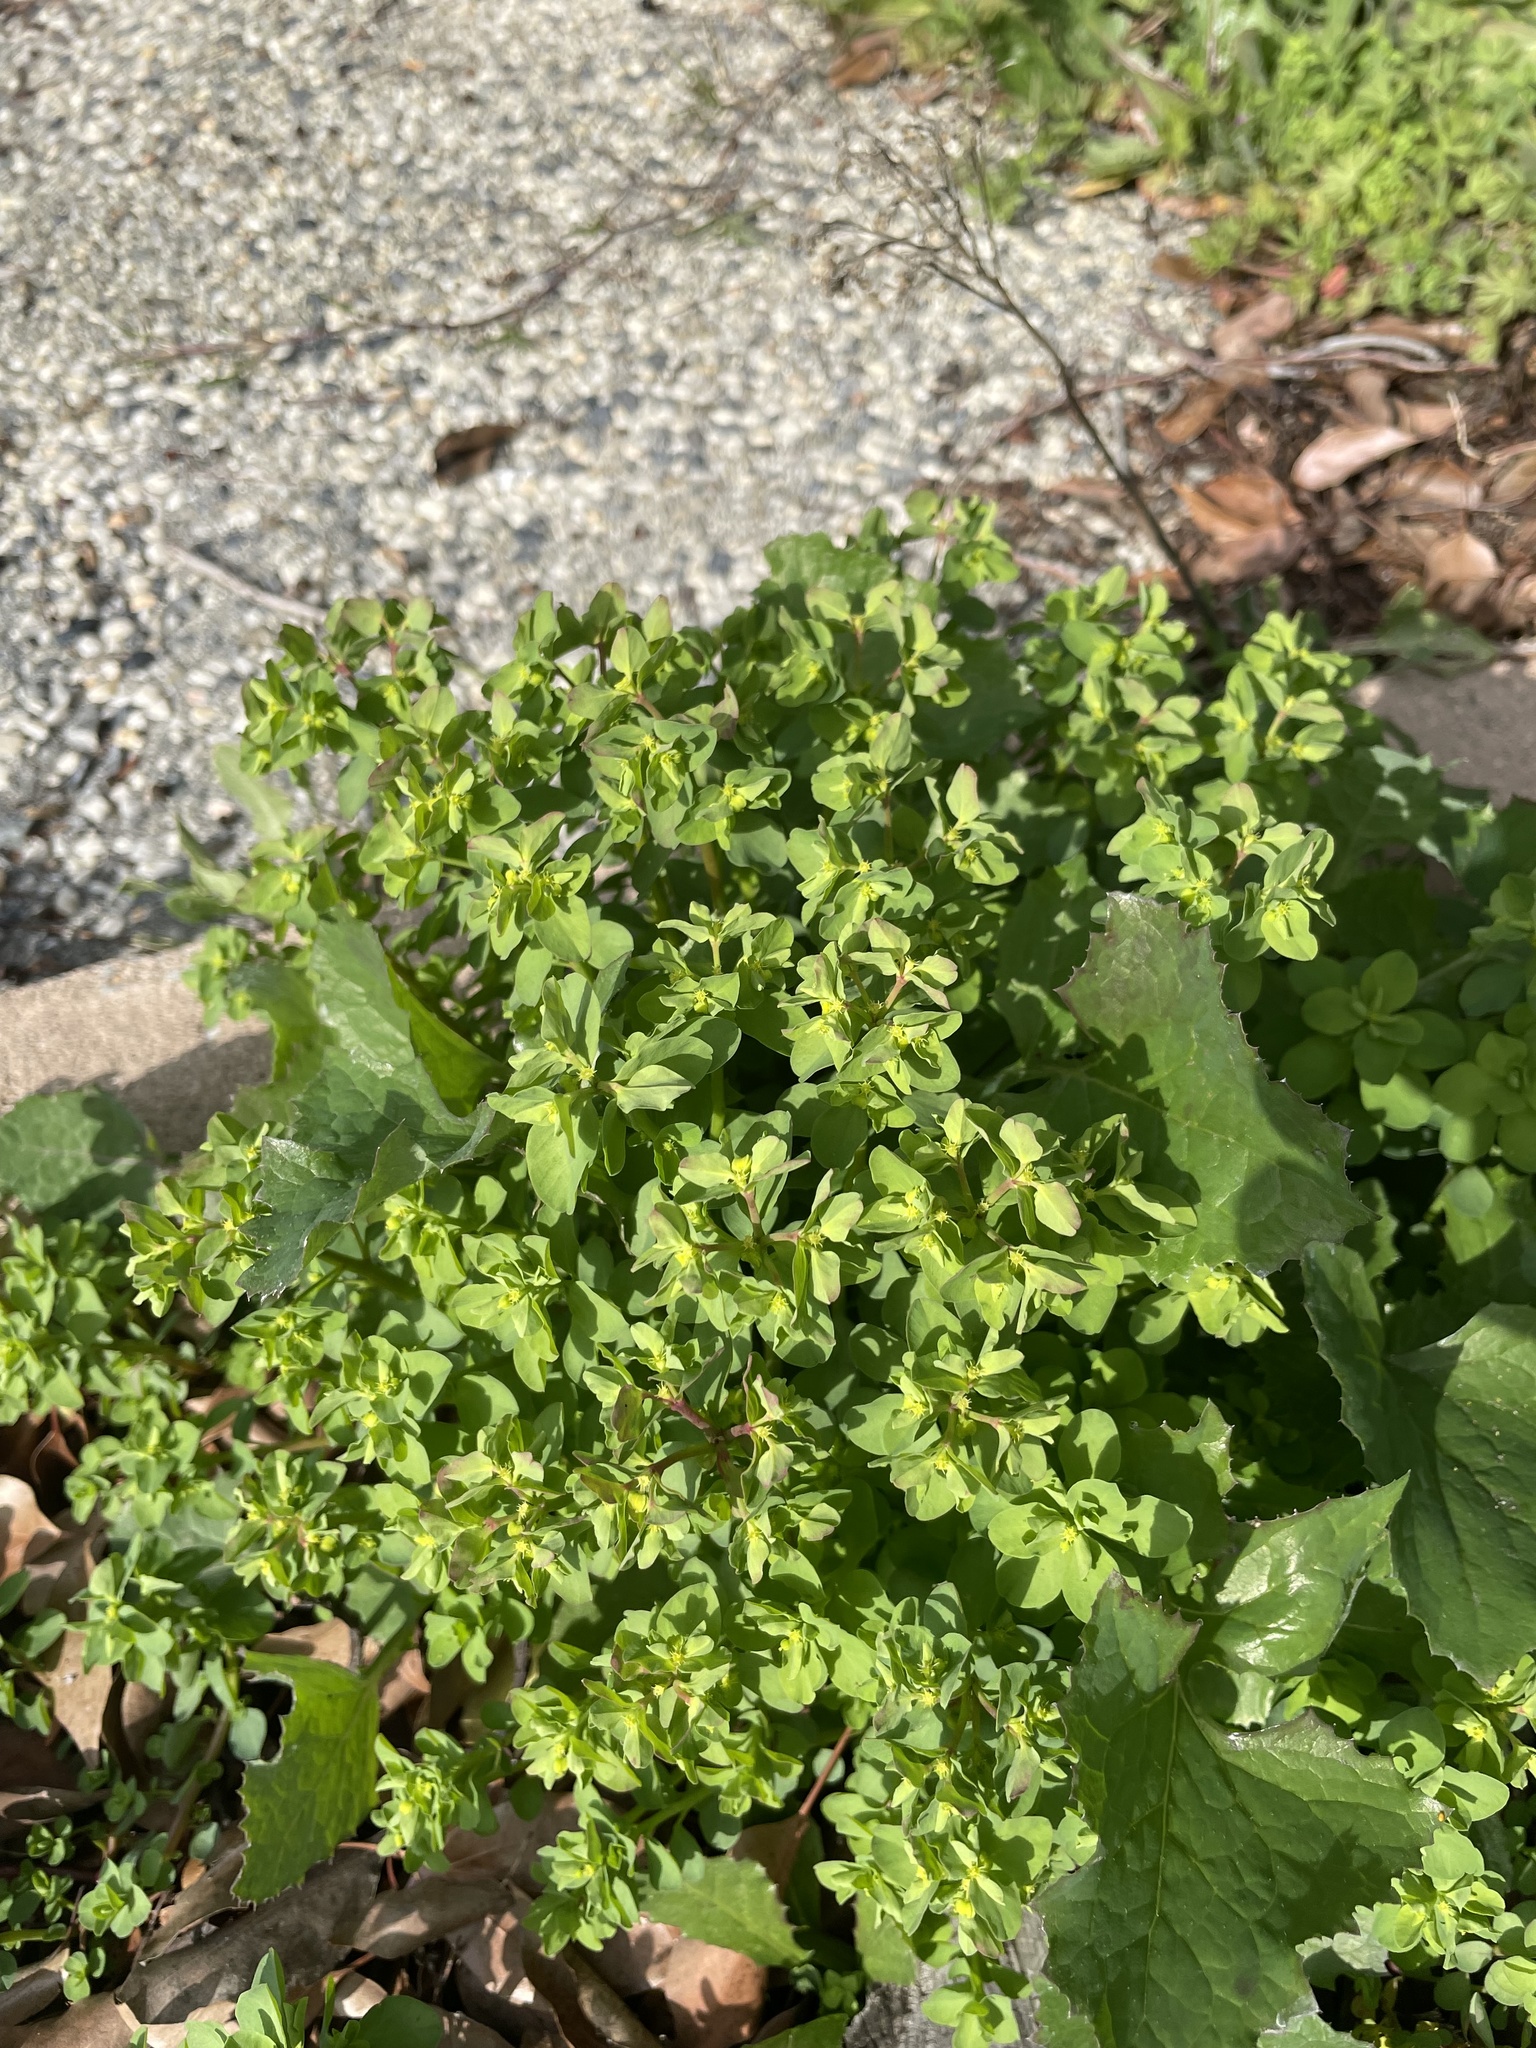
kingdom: Plantae
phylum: Tracheophyta
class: Magnoliopsida
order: Malpighiales
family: Euphorbiaceae
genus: Euphorbia
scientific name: Euphorbia peplus
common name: Petty spurge
